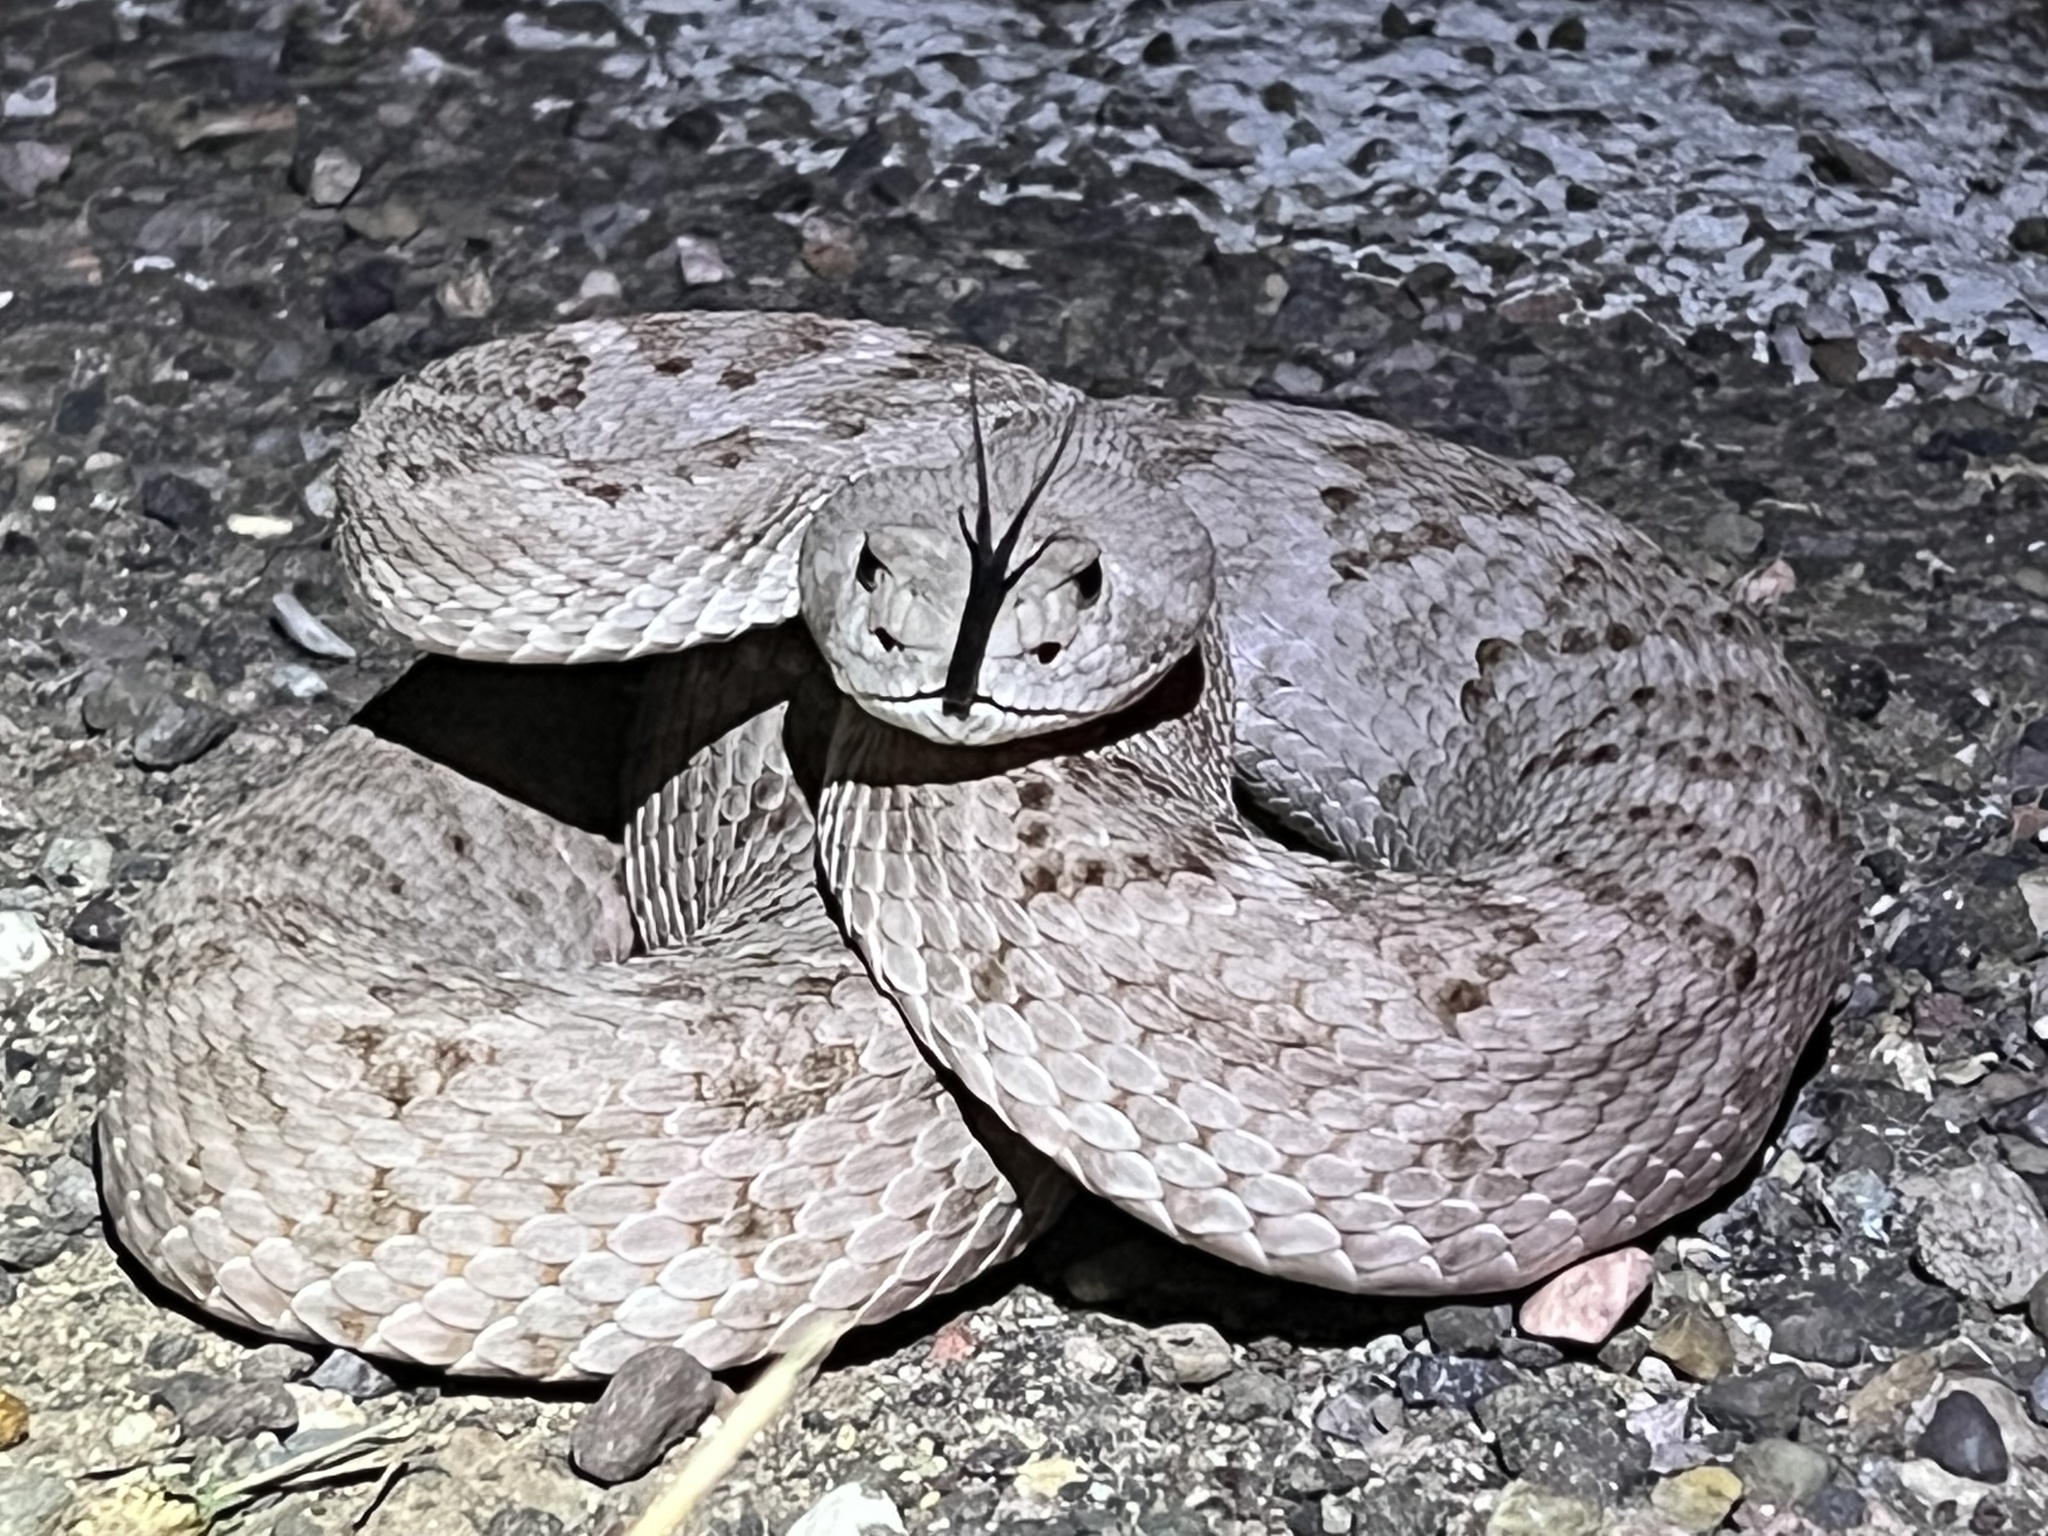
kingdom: Animalia
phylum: Chordata
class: Squamata
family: Viperidae
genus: Crotalus
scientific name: Crotalus atrox
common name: Western diamond-backed rattlesnake
